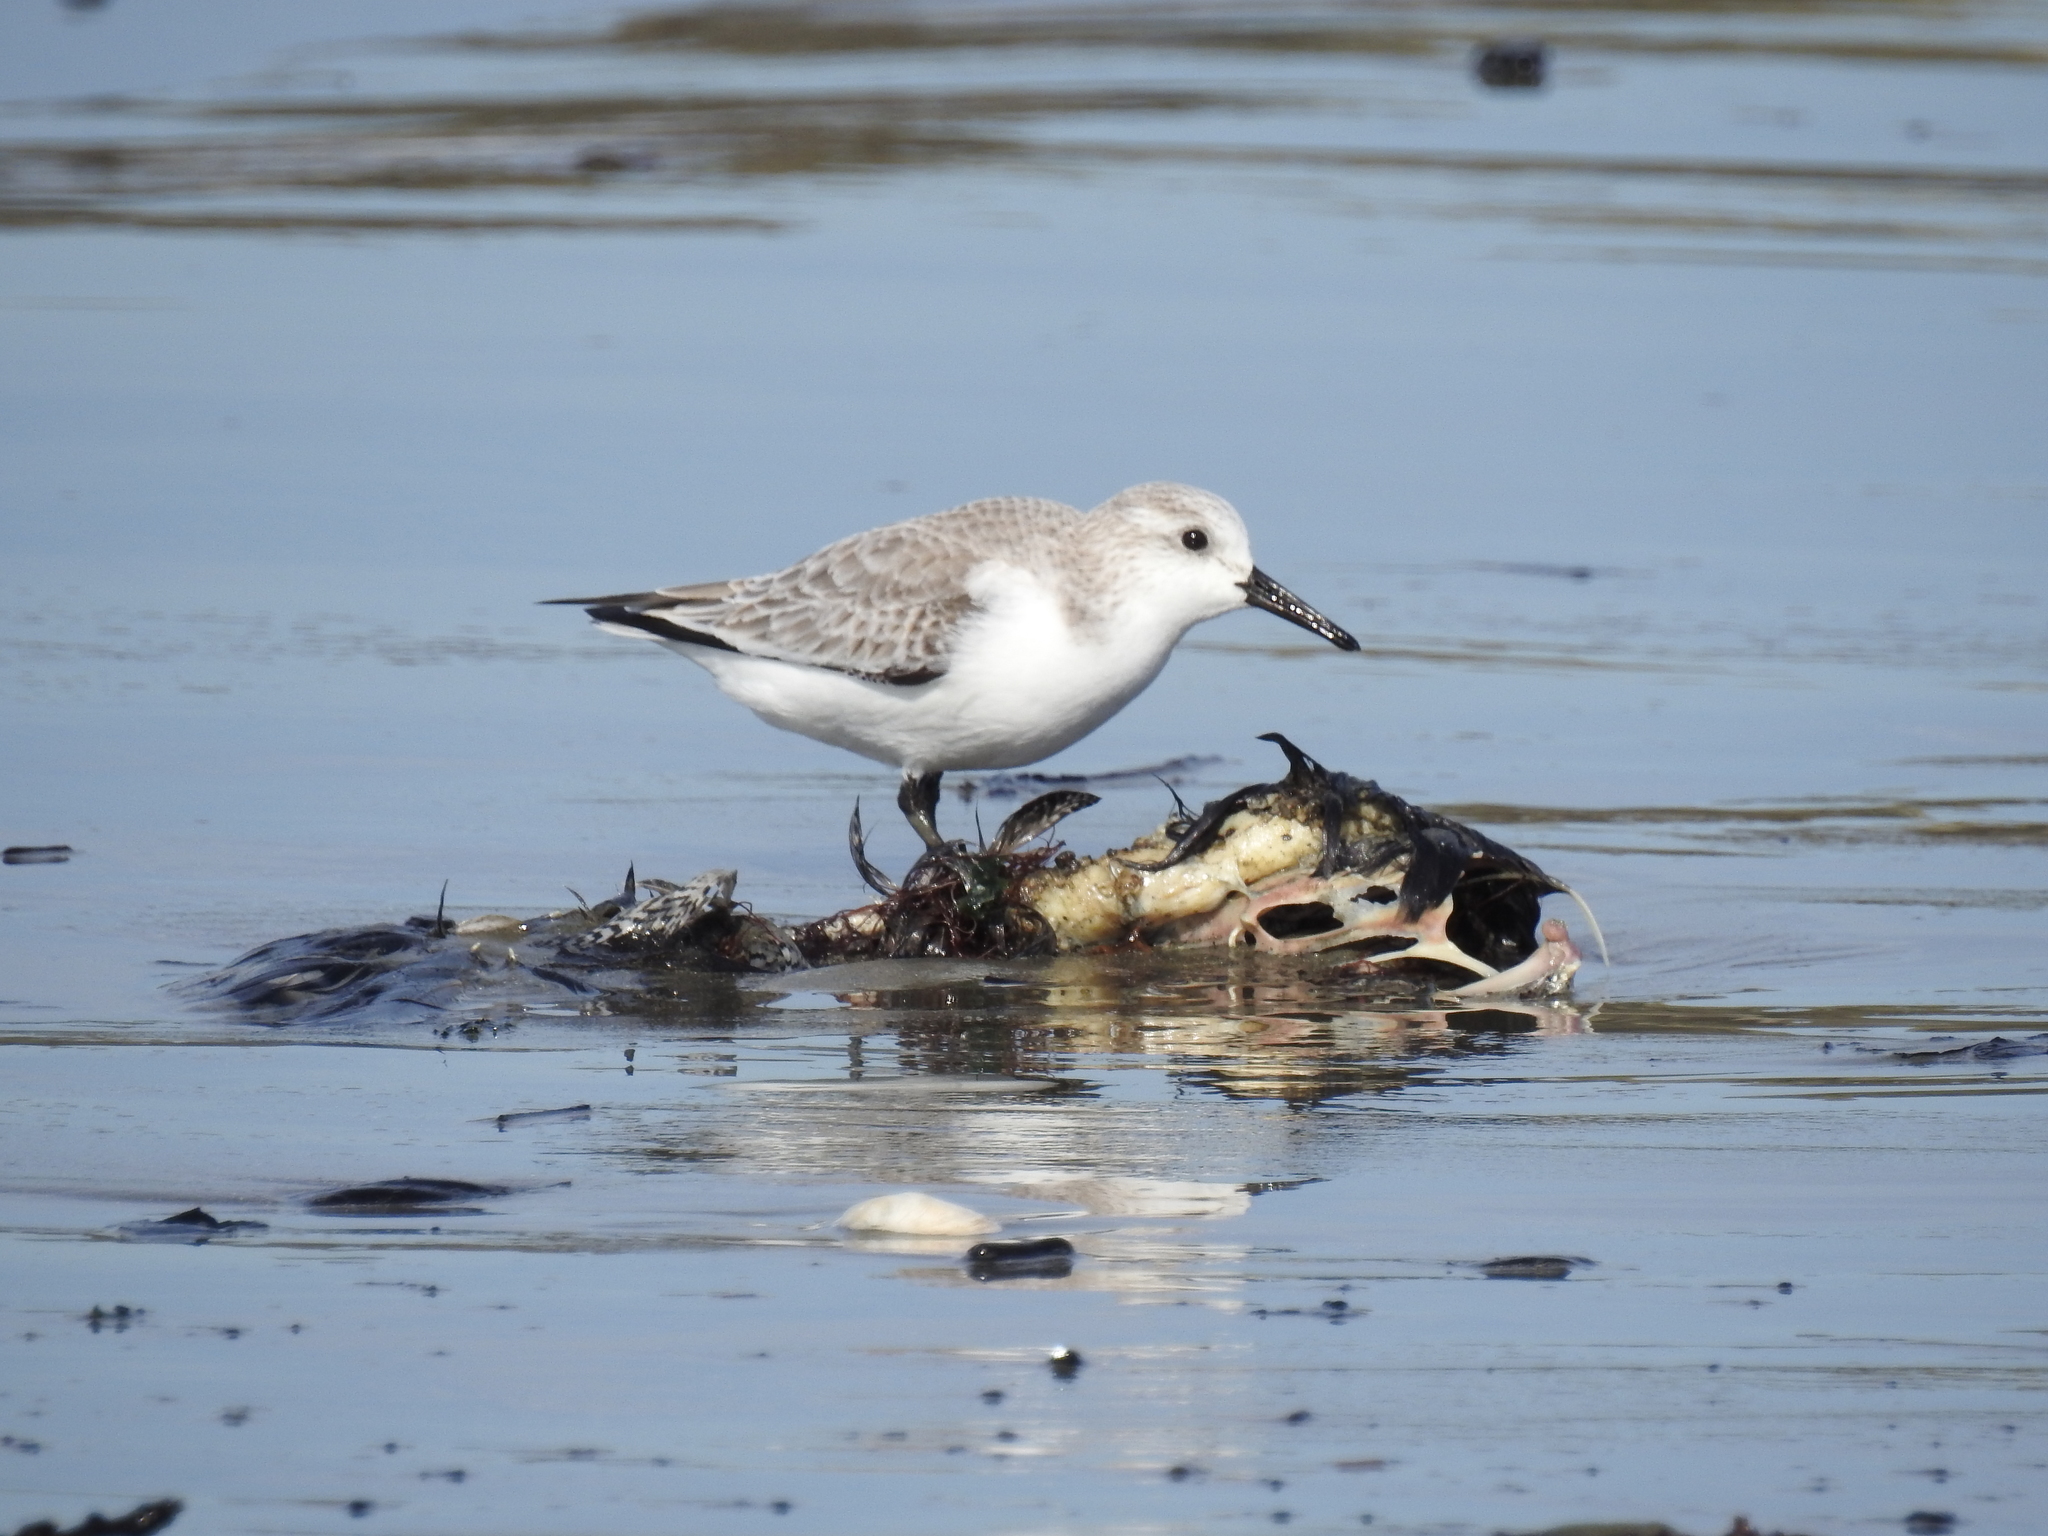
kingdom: Animalia
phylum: Chordata
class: Aves
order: Charadriiformes
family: Scolopacidae
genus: Calidris
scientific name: Calidris alba
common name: Sanderling
